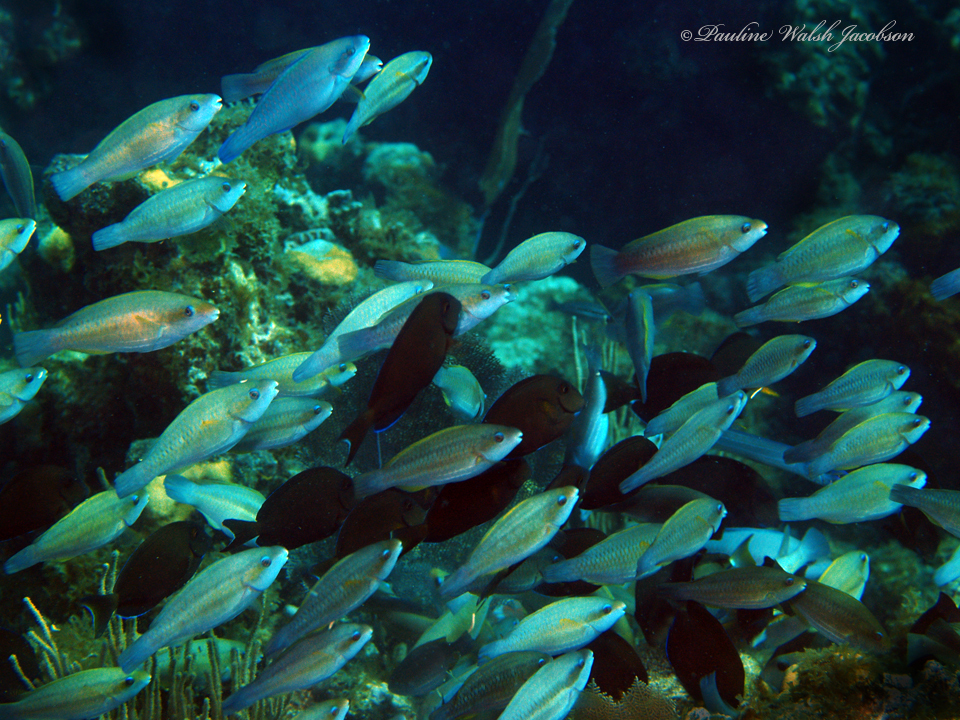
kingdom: Animalia
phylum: Chordata
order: Perciformes
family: Scaridae
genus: Scarus
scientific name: Scarus iseri
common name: Striped parrotfish
